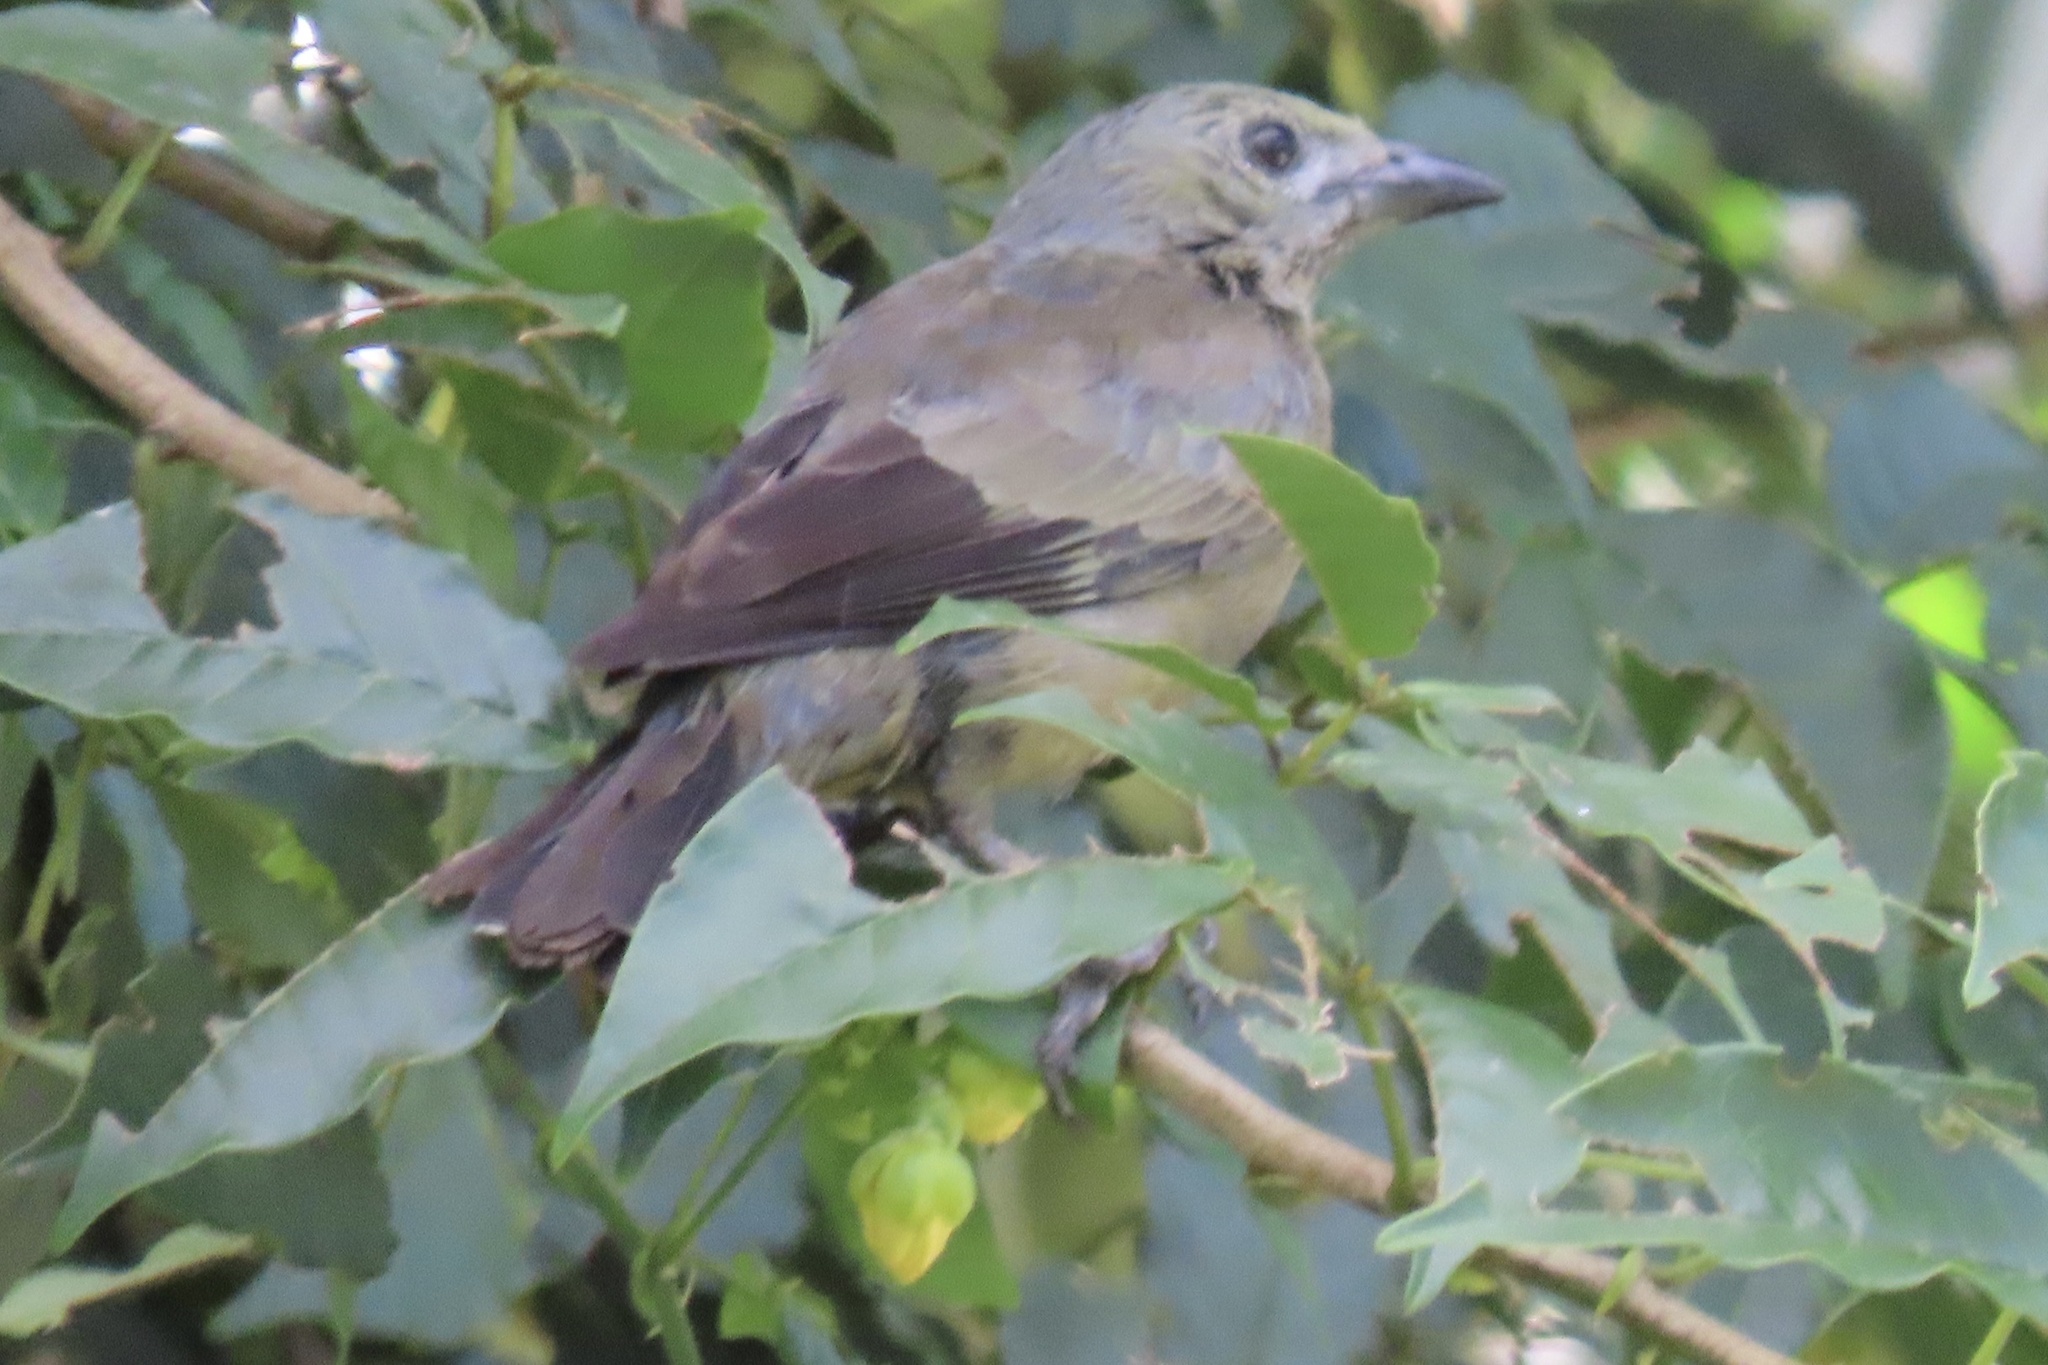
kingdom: Animalia
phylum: Chordata
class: Aves
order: Passeriformes
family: Thraupidae
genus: Thraupis
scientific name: Thraupis palmarum
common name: Palm tanager
